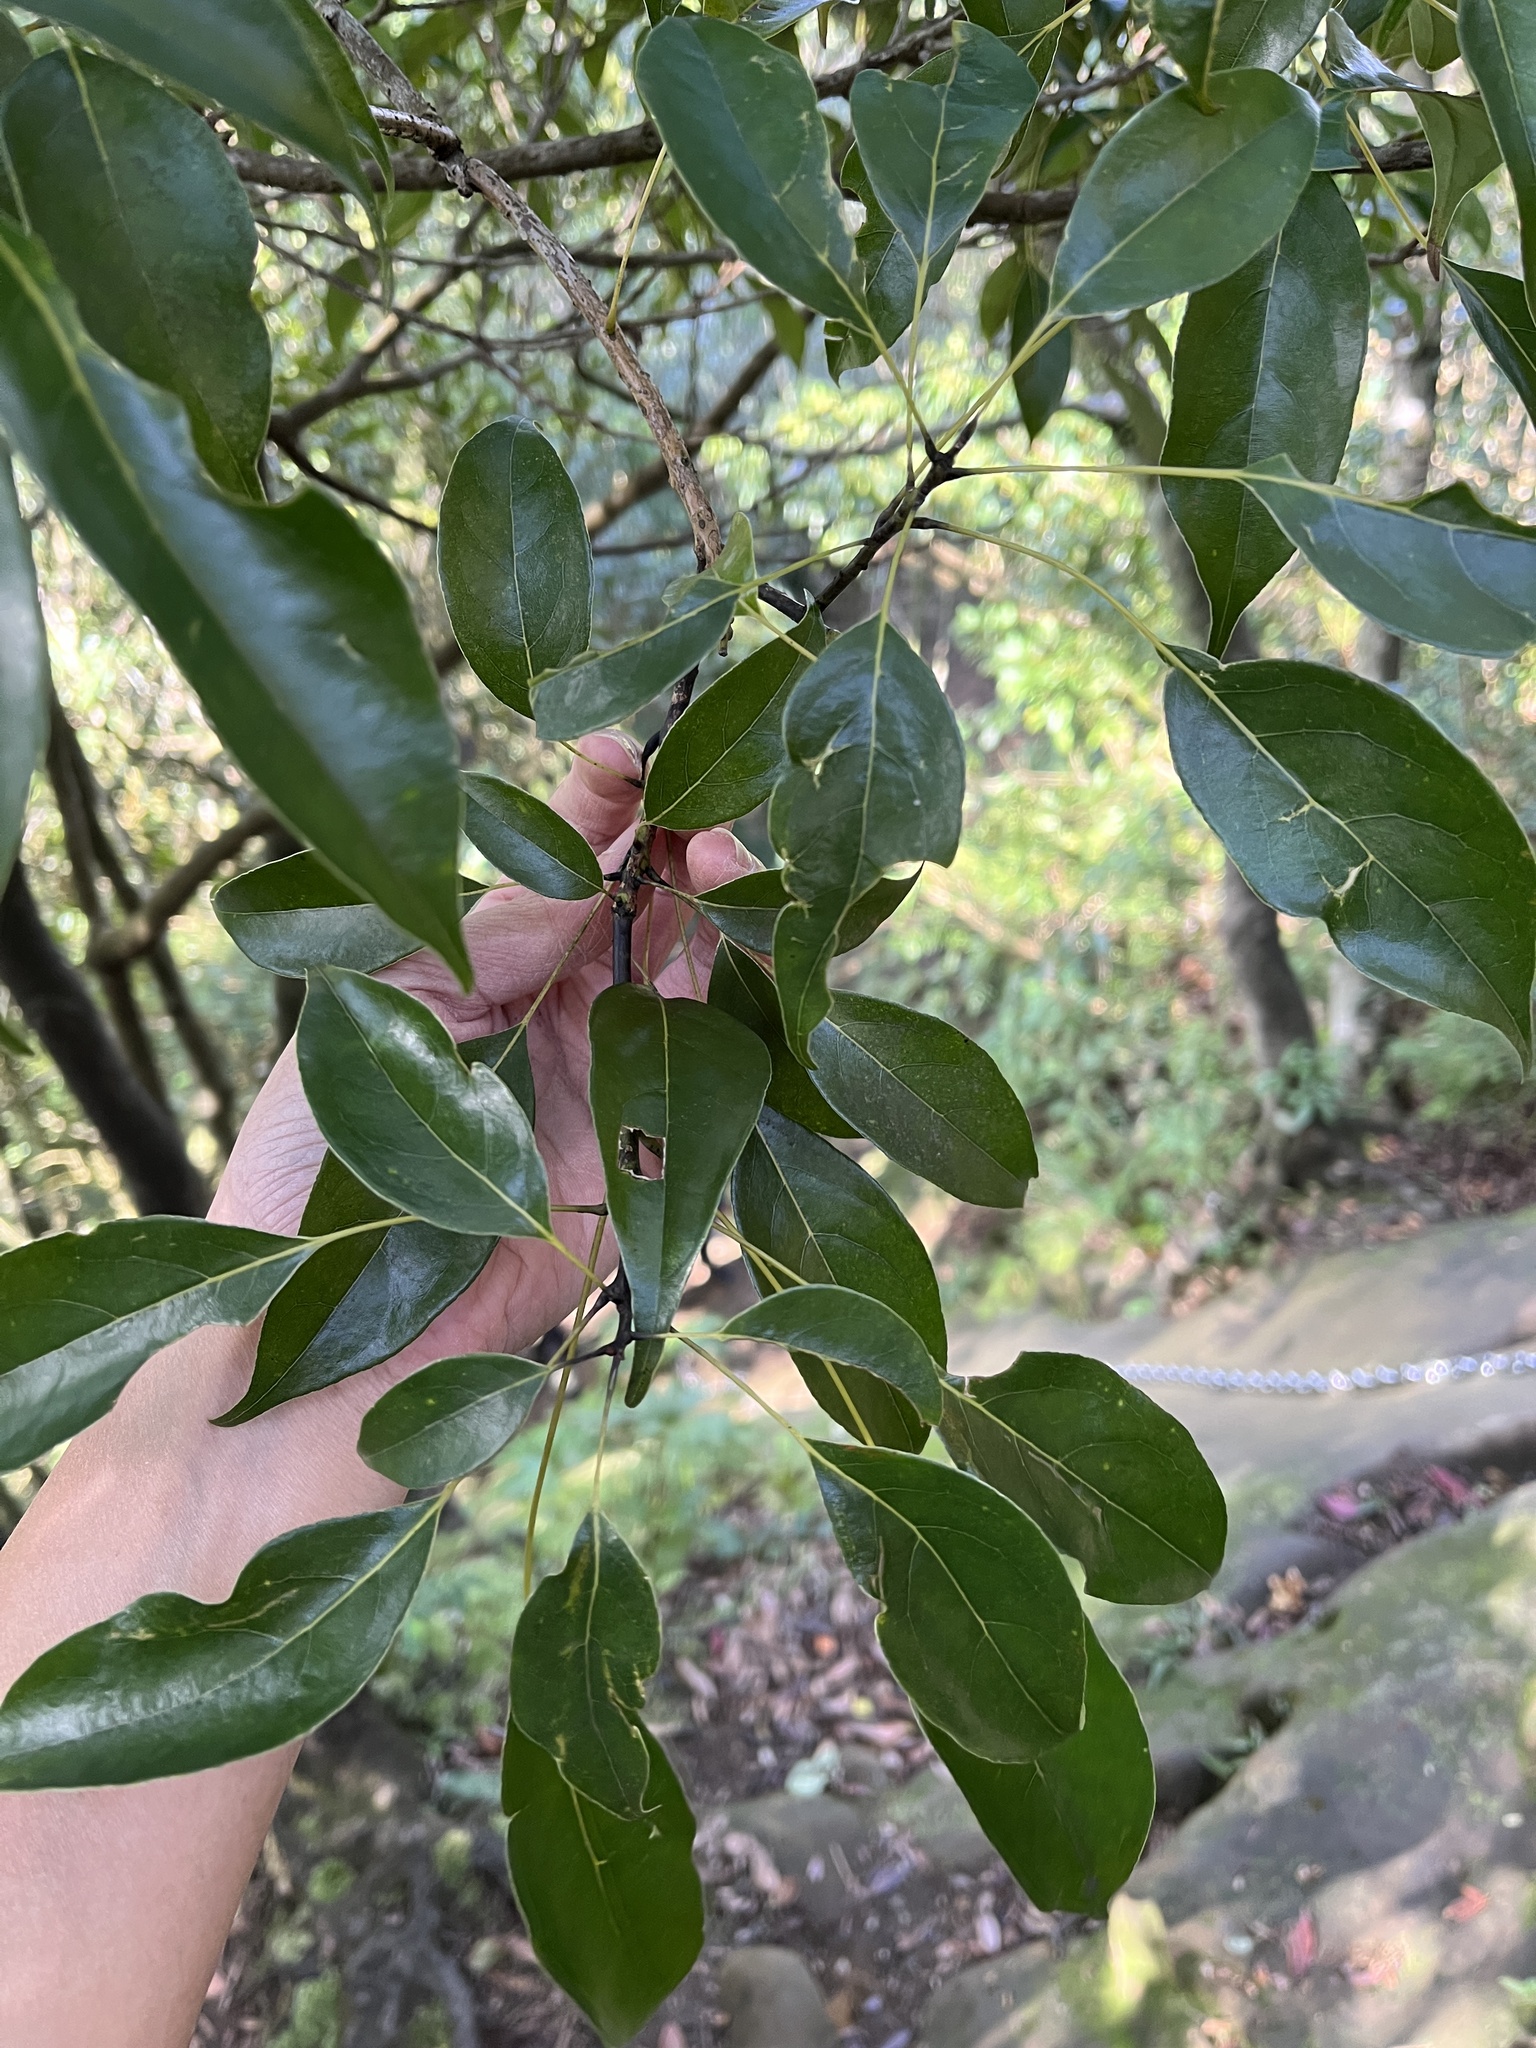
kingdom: Plantae
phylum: Tracheophyta
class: Magnoliopsida
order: Proteales
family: Sabiaceae
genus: Meliosma
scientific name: Meliosma squamulata
